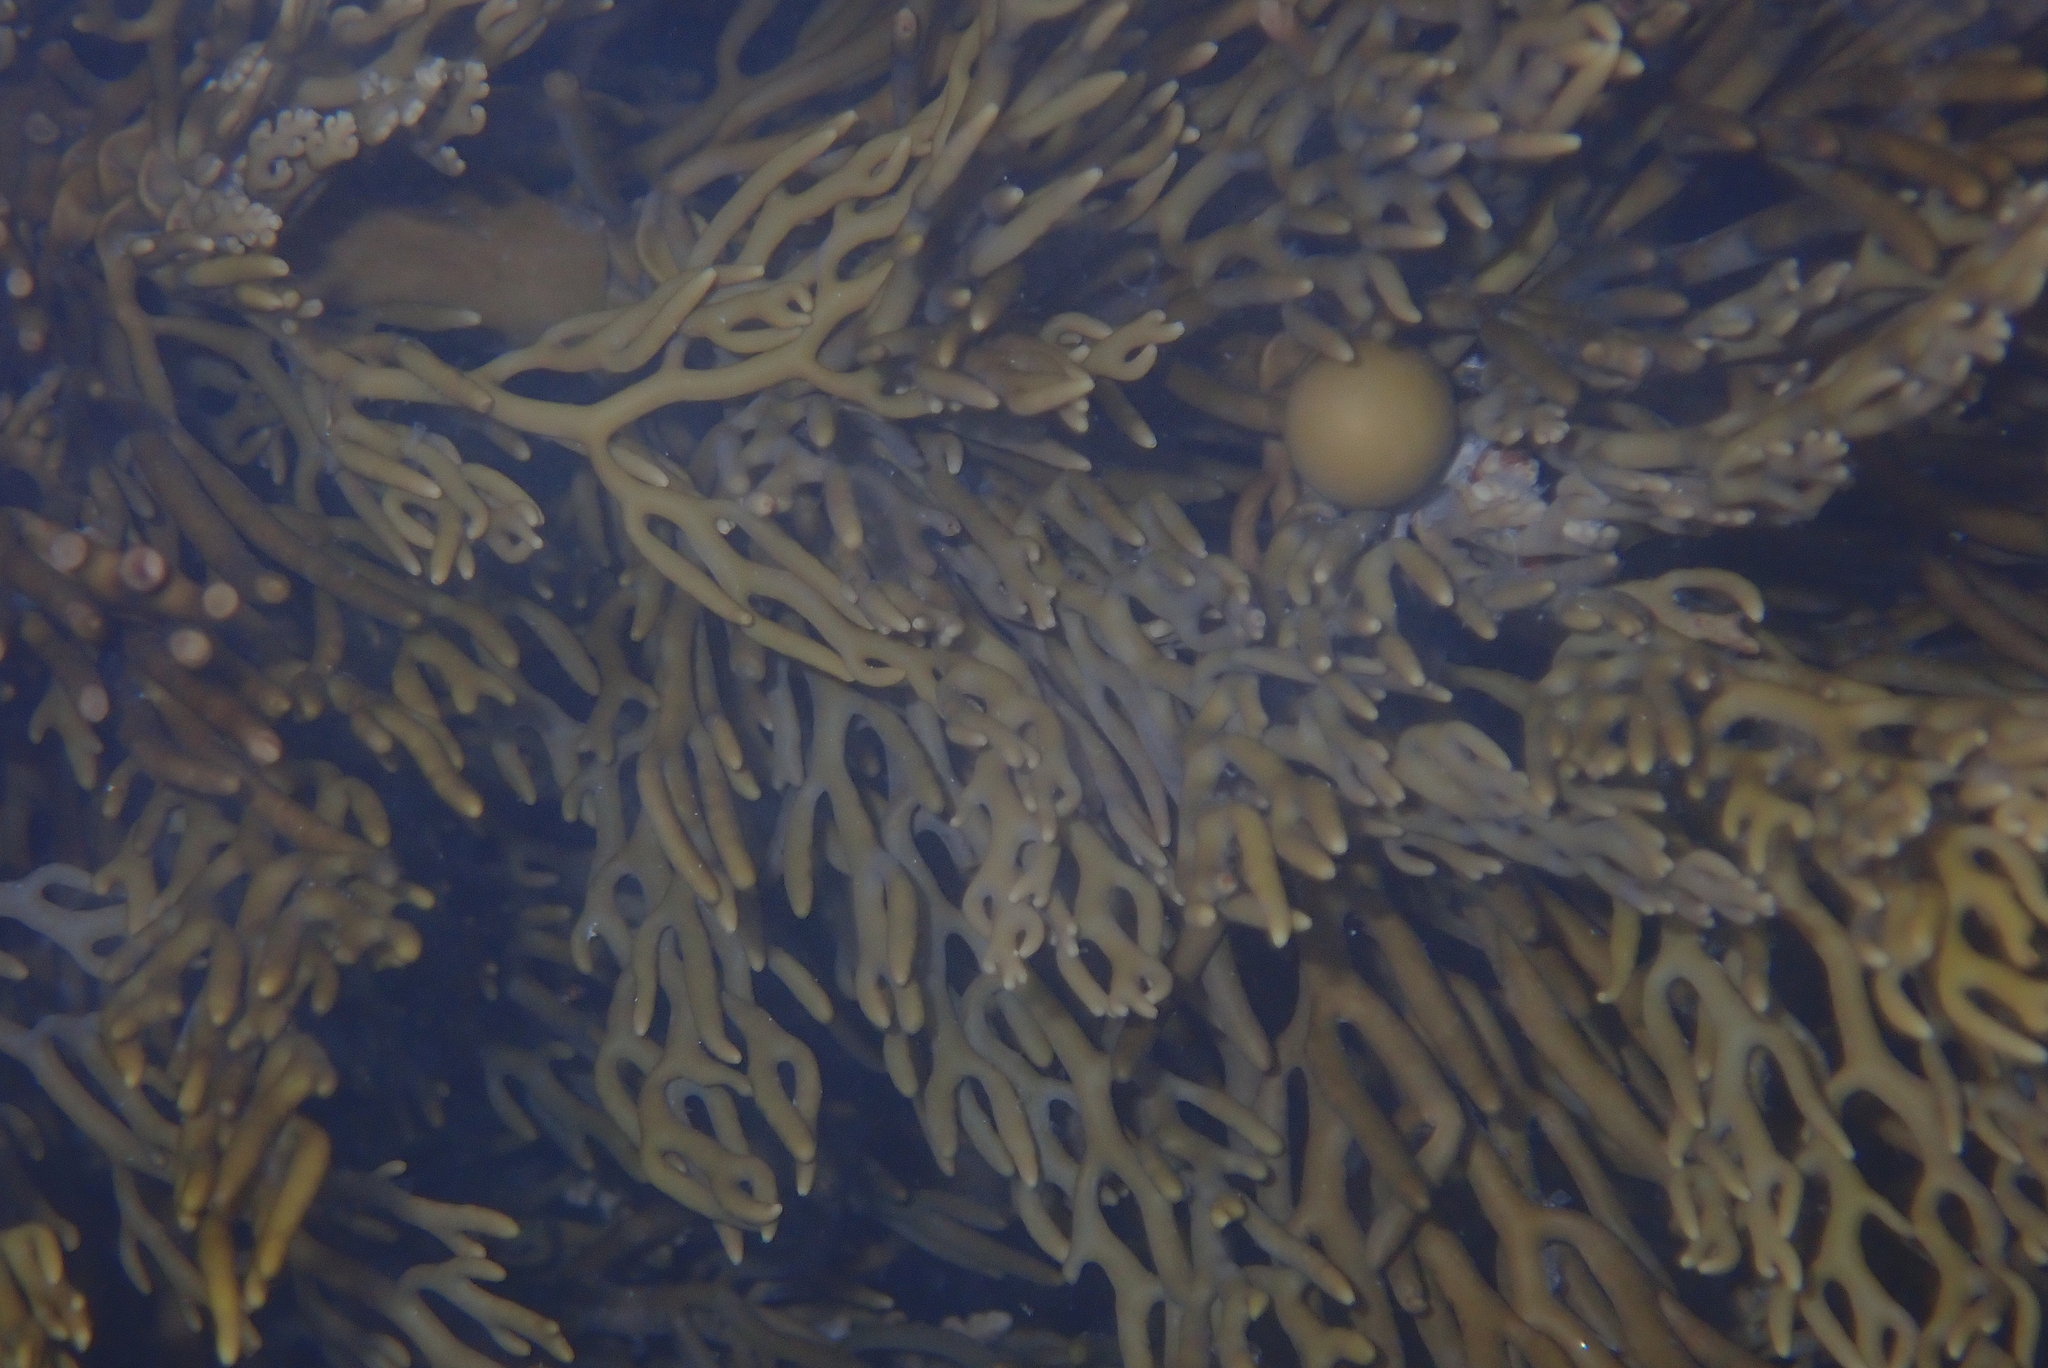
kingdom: Chromista
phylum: Ochrophyta
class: Phaeophyceae
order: Fucales
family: Sargassaceae
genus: Cystophora
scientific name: Cystophora scalaris
